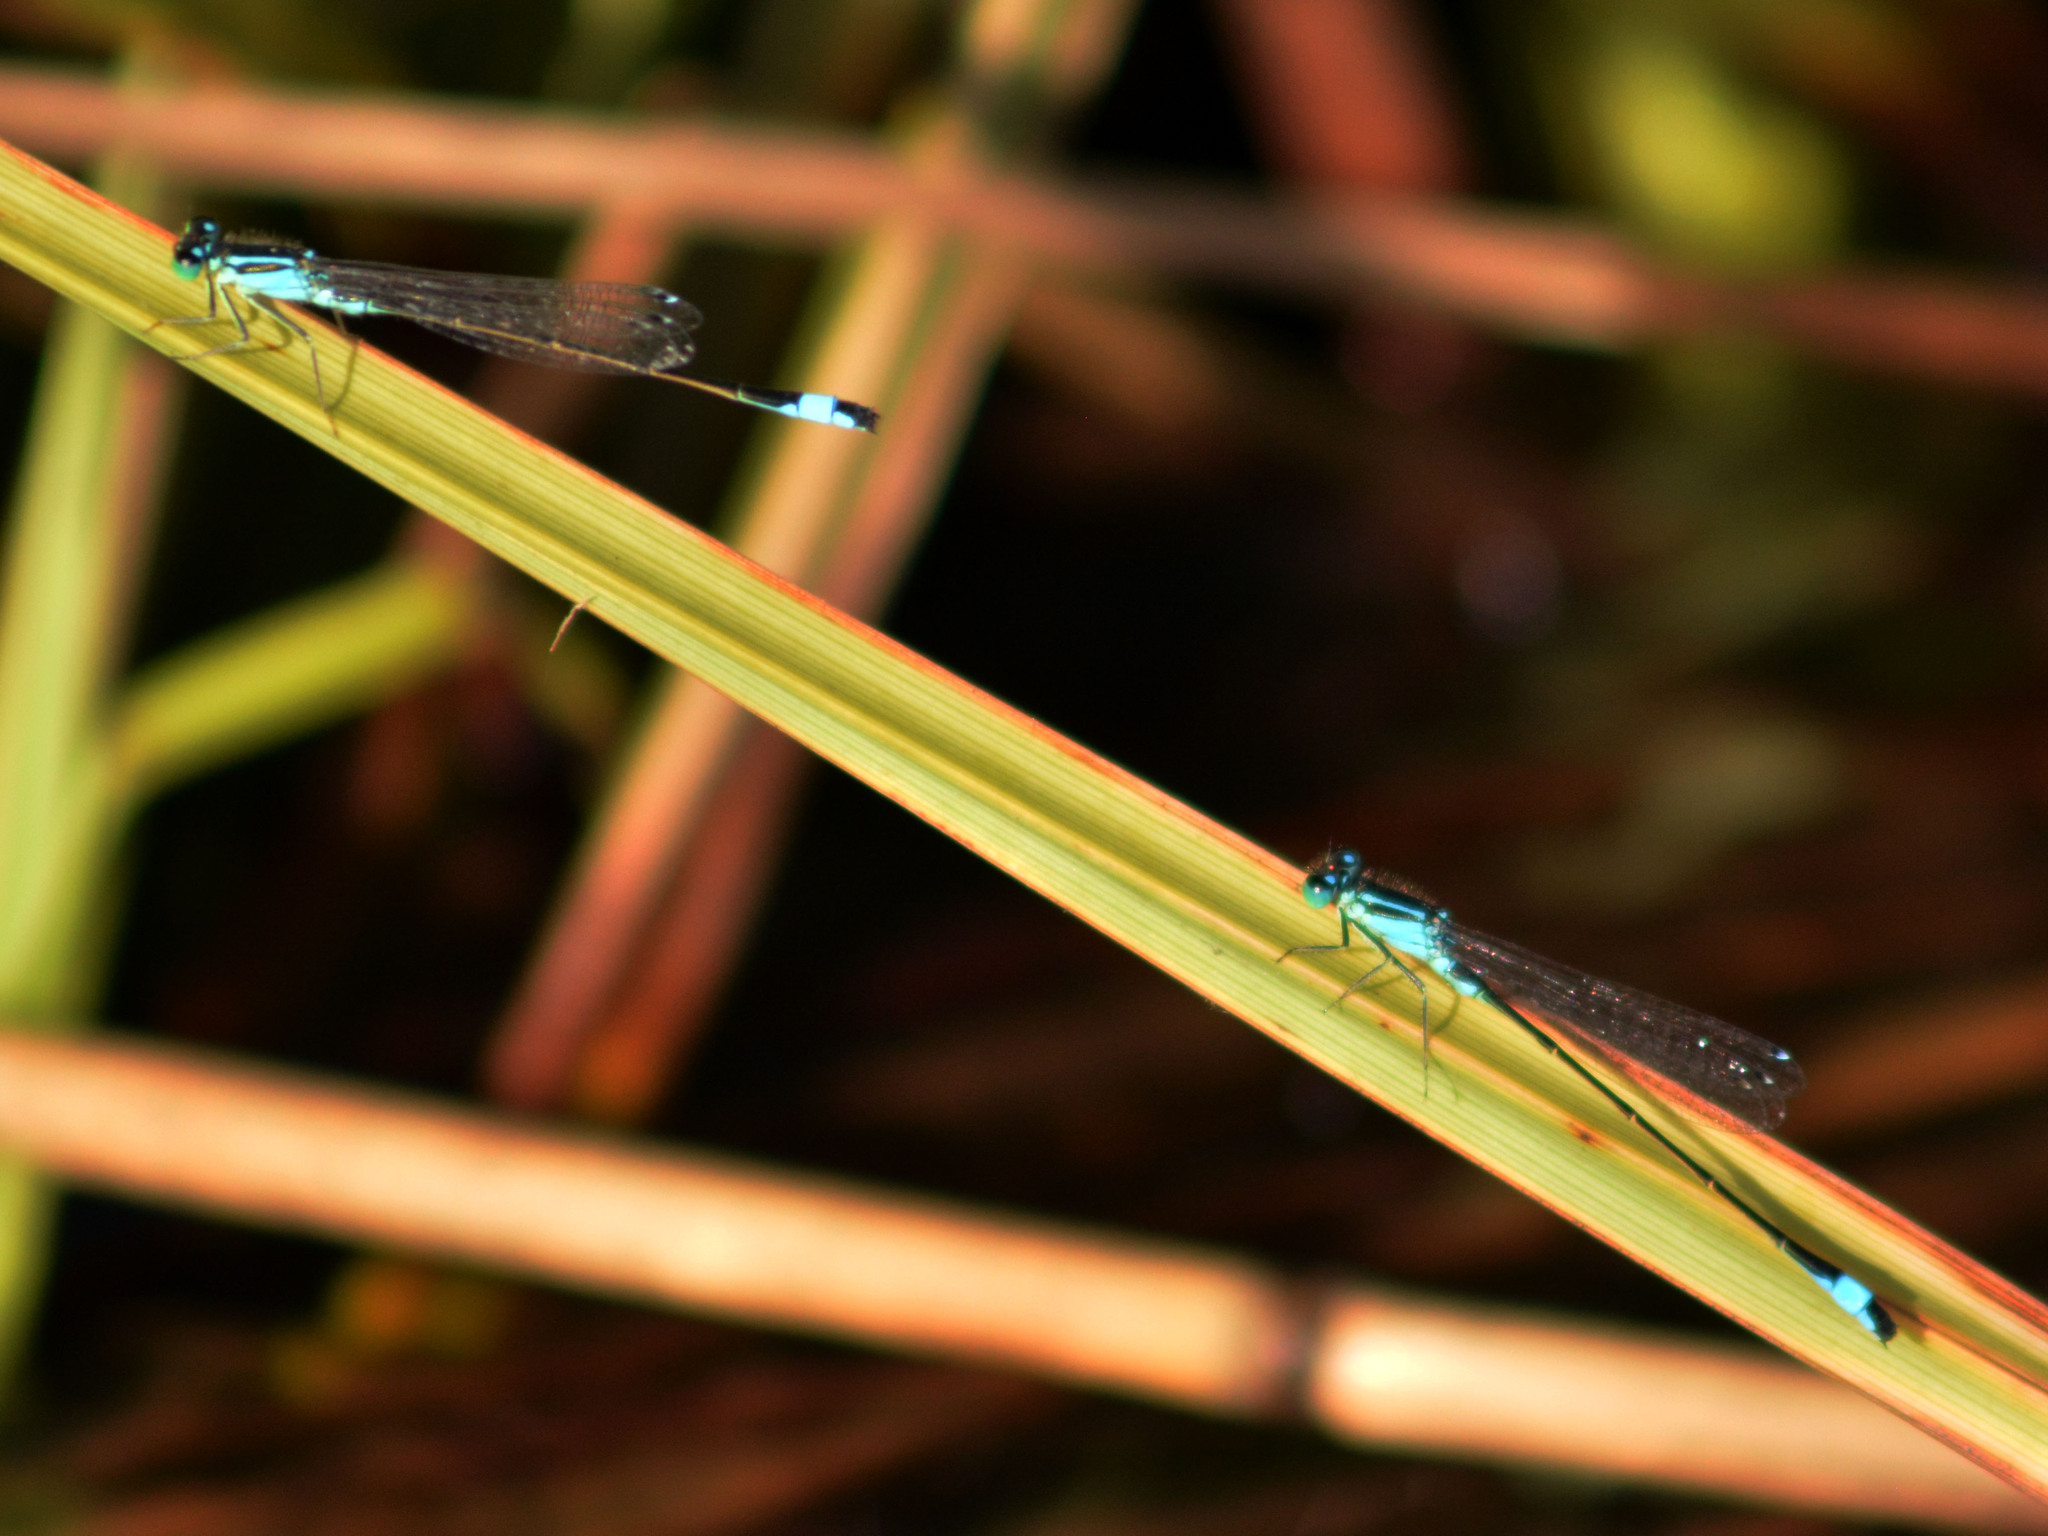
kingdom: Animalia
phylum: Arthropoda
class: Insecta
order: Odonata
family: Coenagrionidae
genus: Ischnura
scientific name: Ischnura elegans
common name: Blue-tailed damselfly
